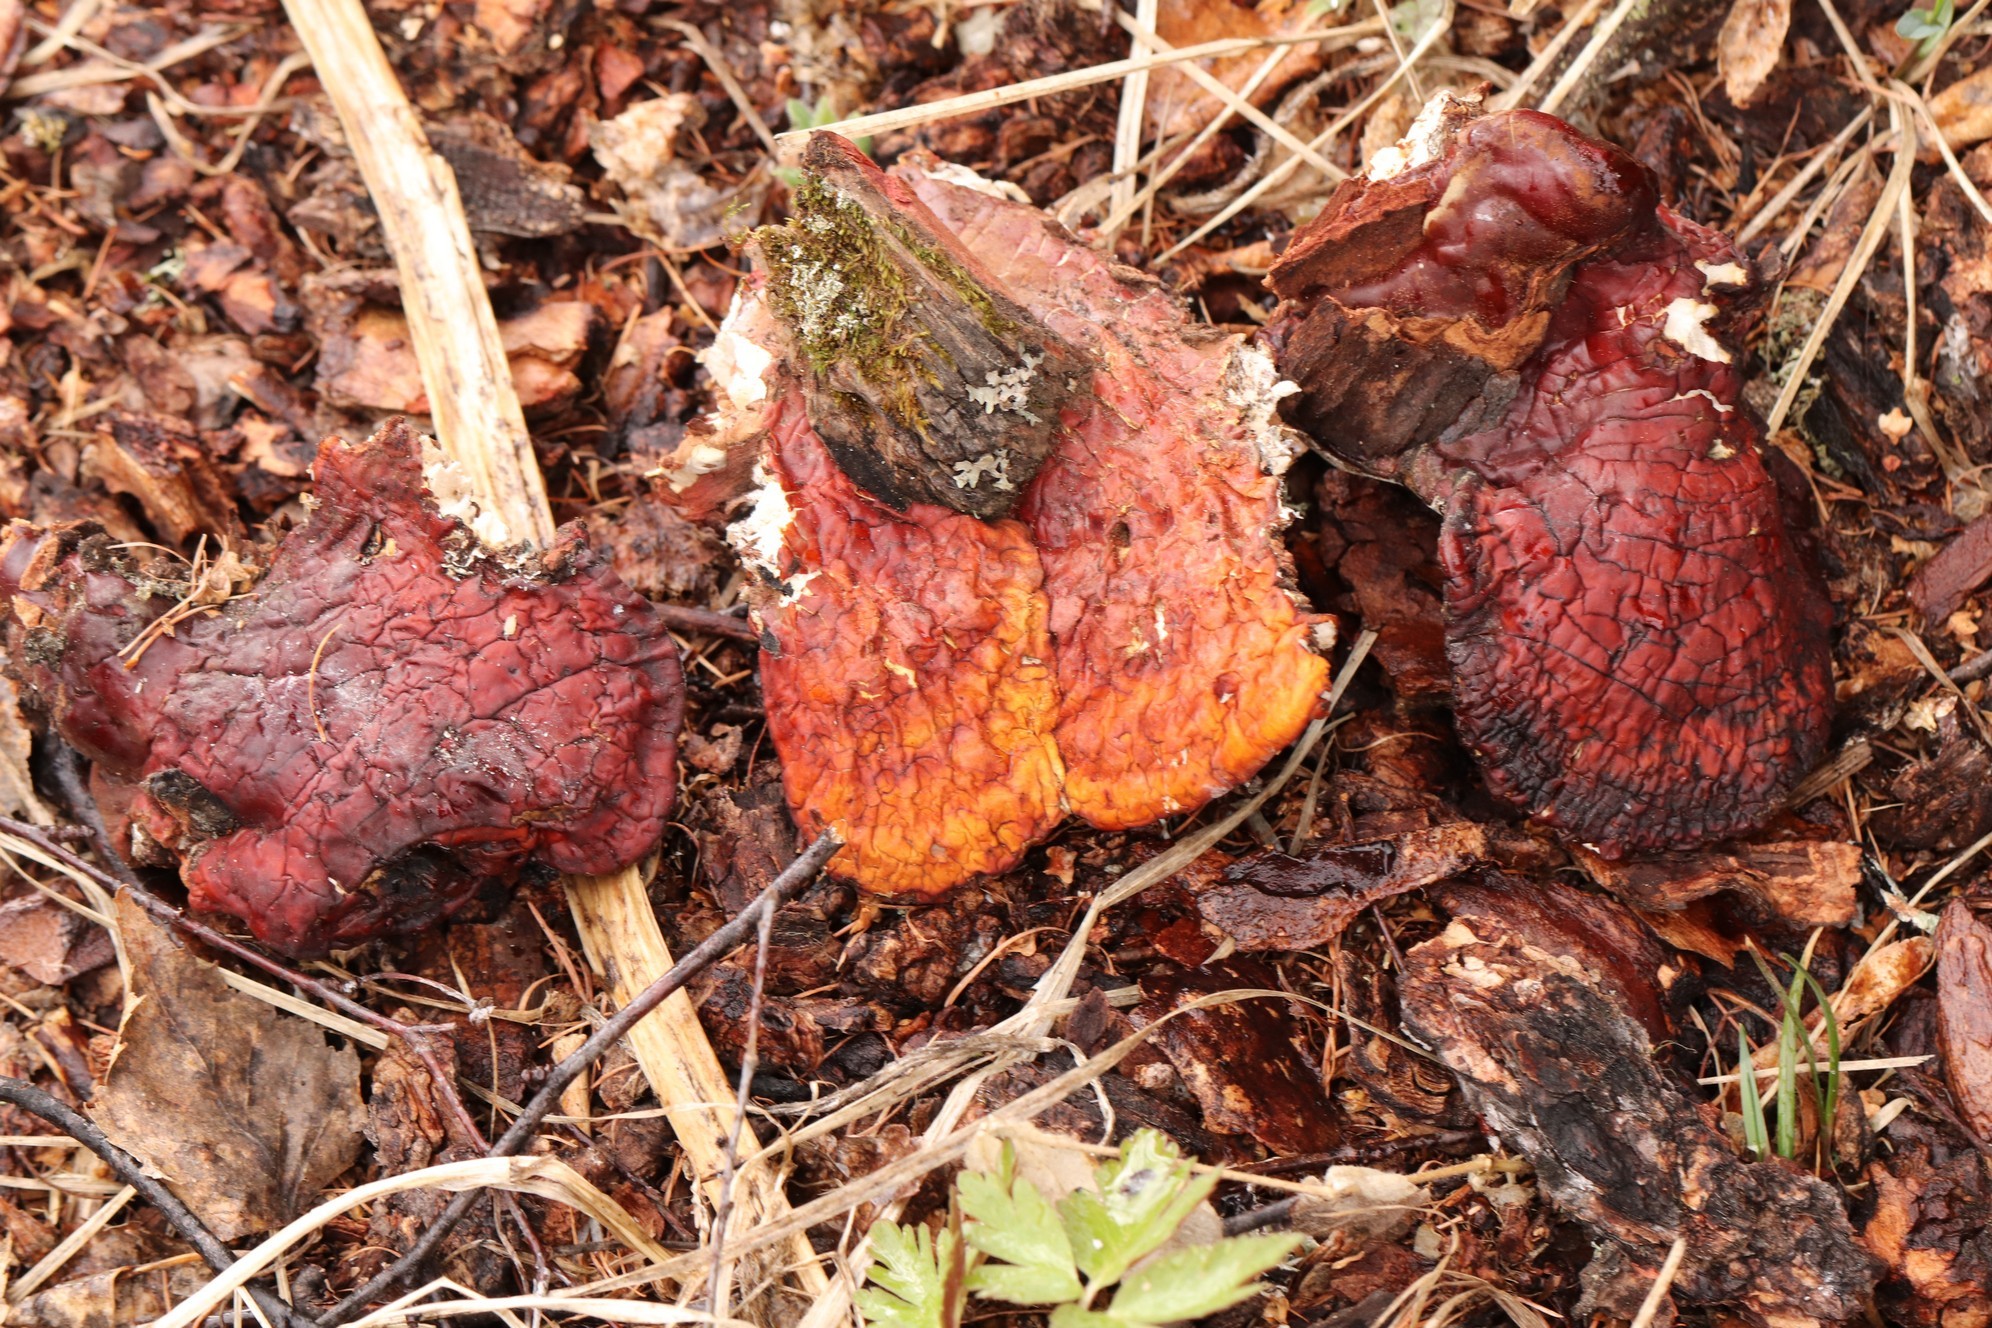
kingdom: Fungi
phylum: Basidiomycota
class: Agaricomycetes
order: Polyporales
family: Polyporaceae
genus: Ganoderma
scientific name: Ganoderma lucidum
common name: Lacquered bracket
